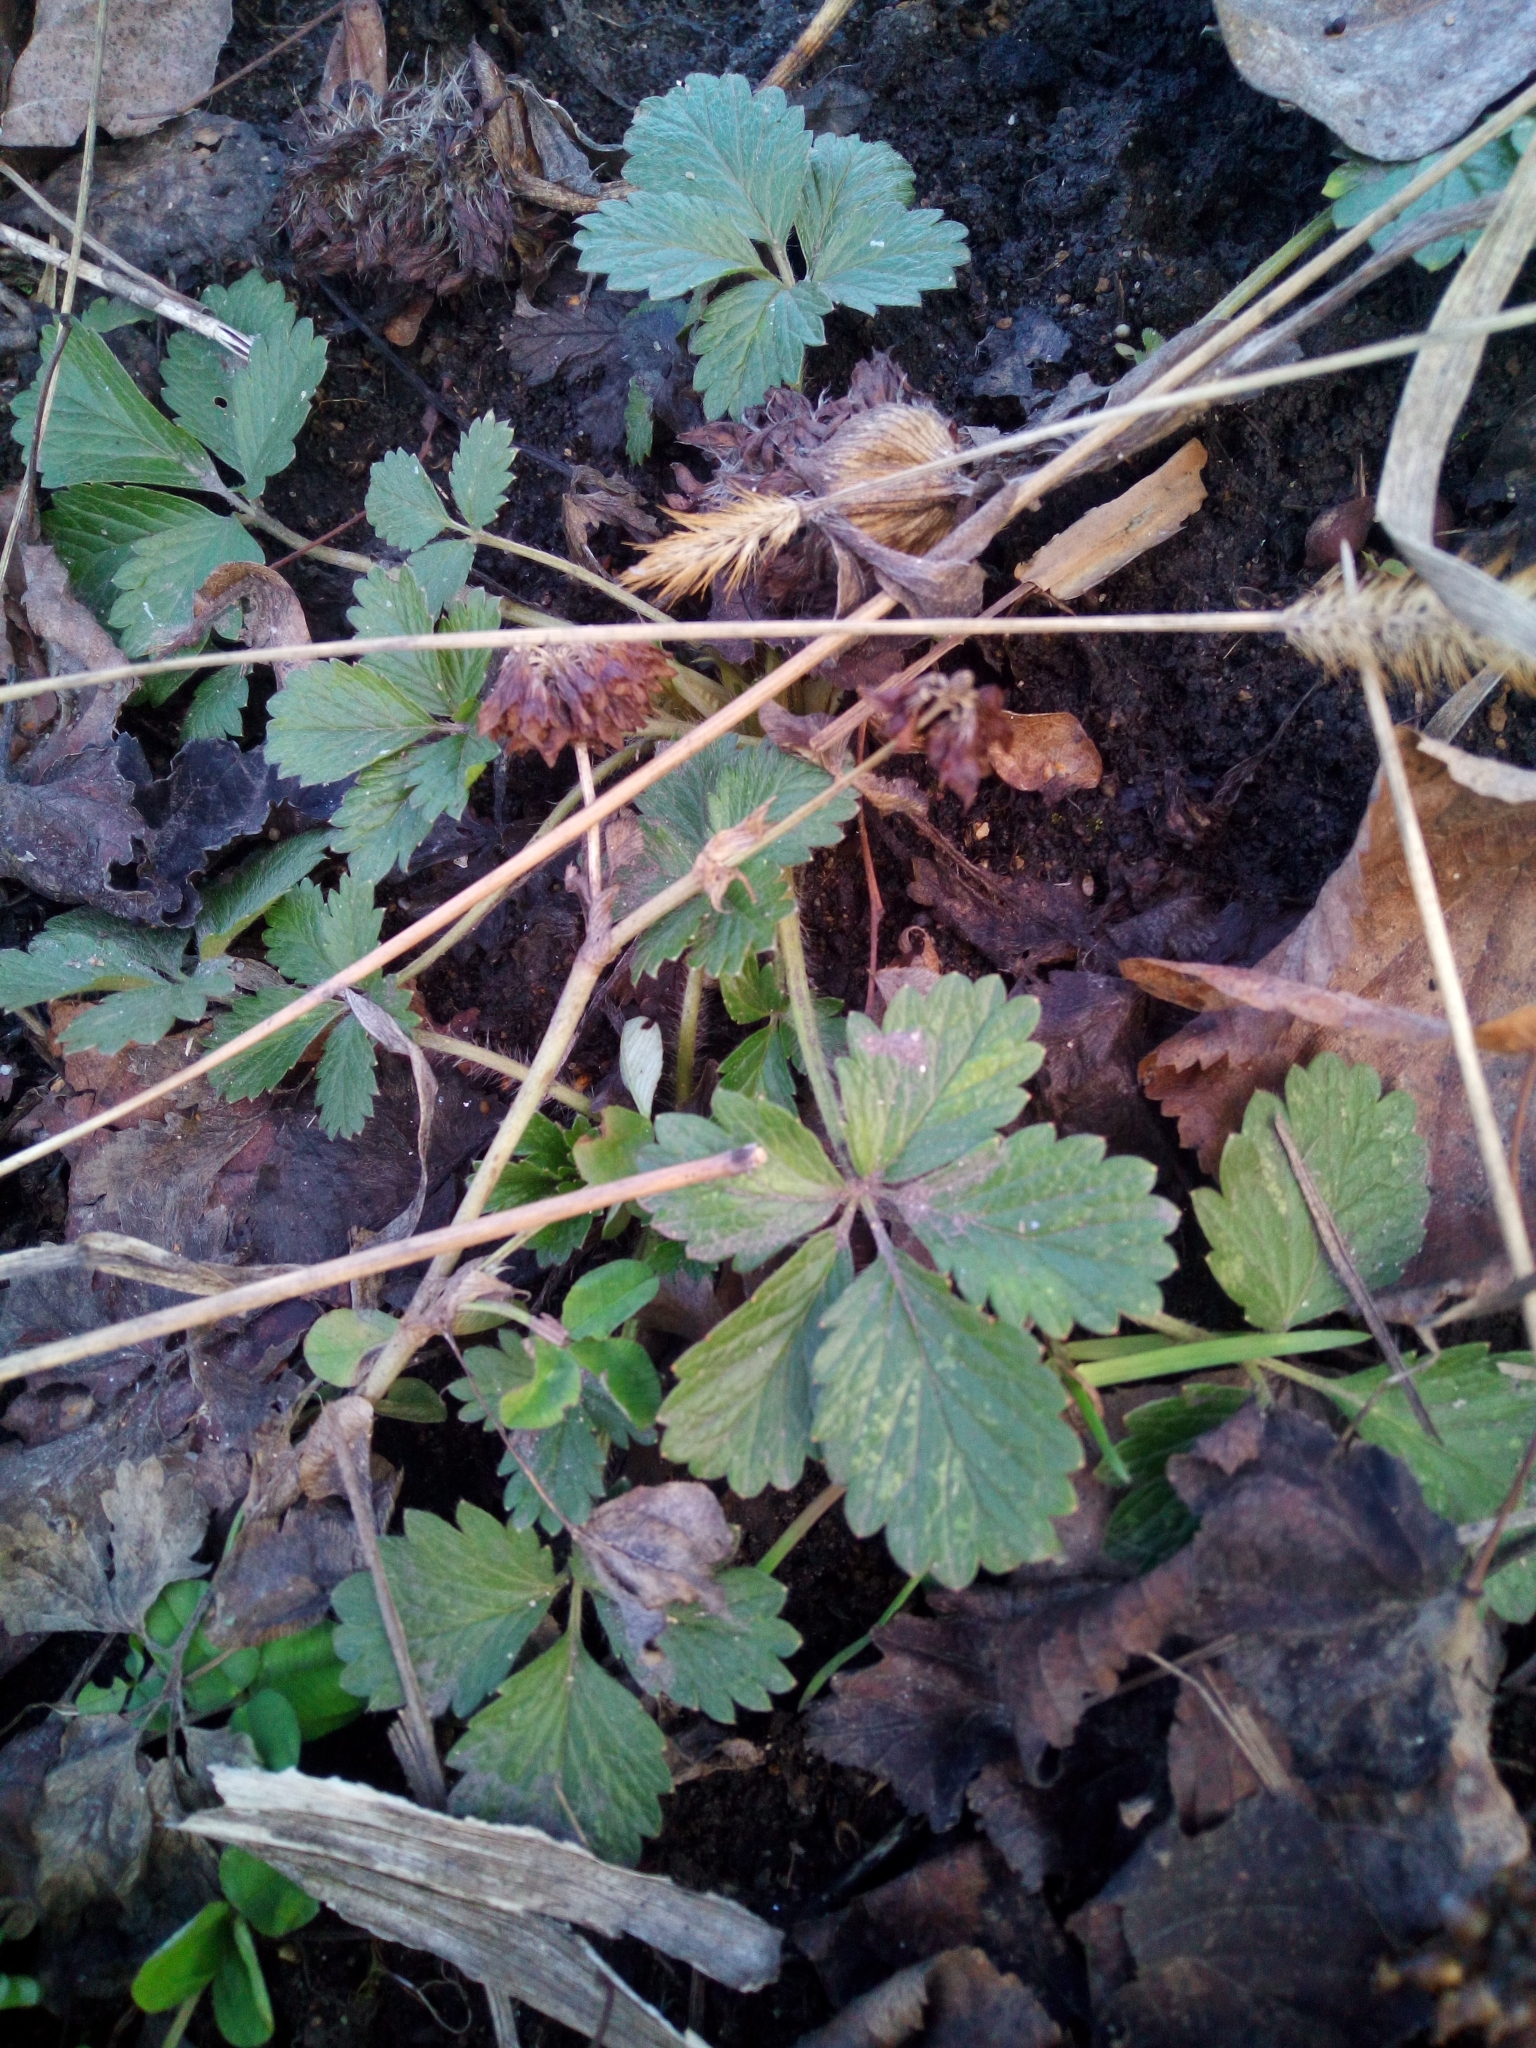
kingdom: Plantae
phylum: Tracheophyta
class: Magnoliopsida
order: Rosales
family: Rosaceae
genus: Potentilla
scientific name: Potentilla intermedia
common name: Downy cinquefoil
